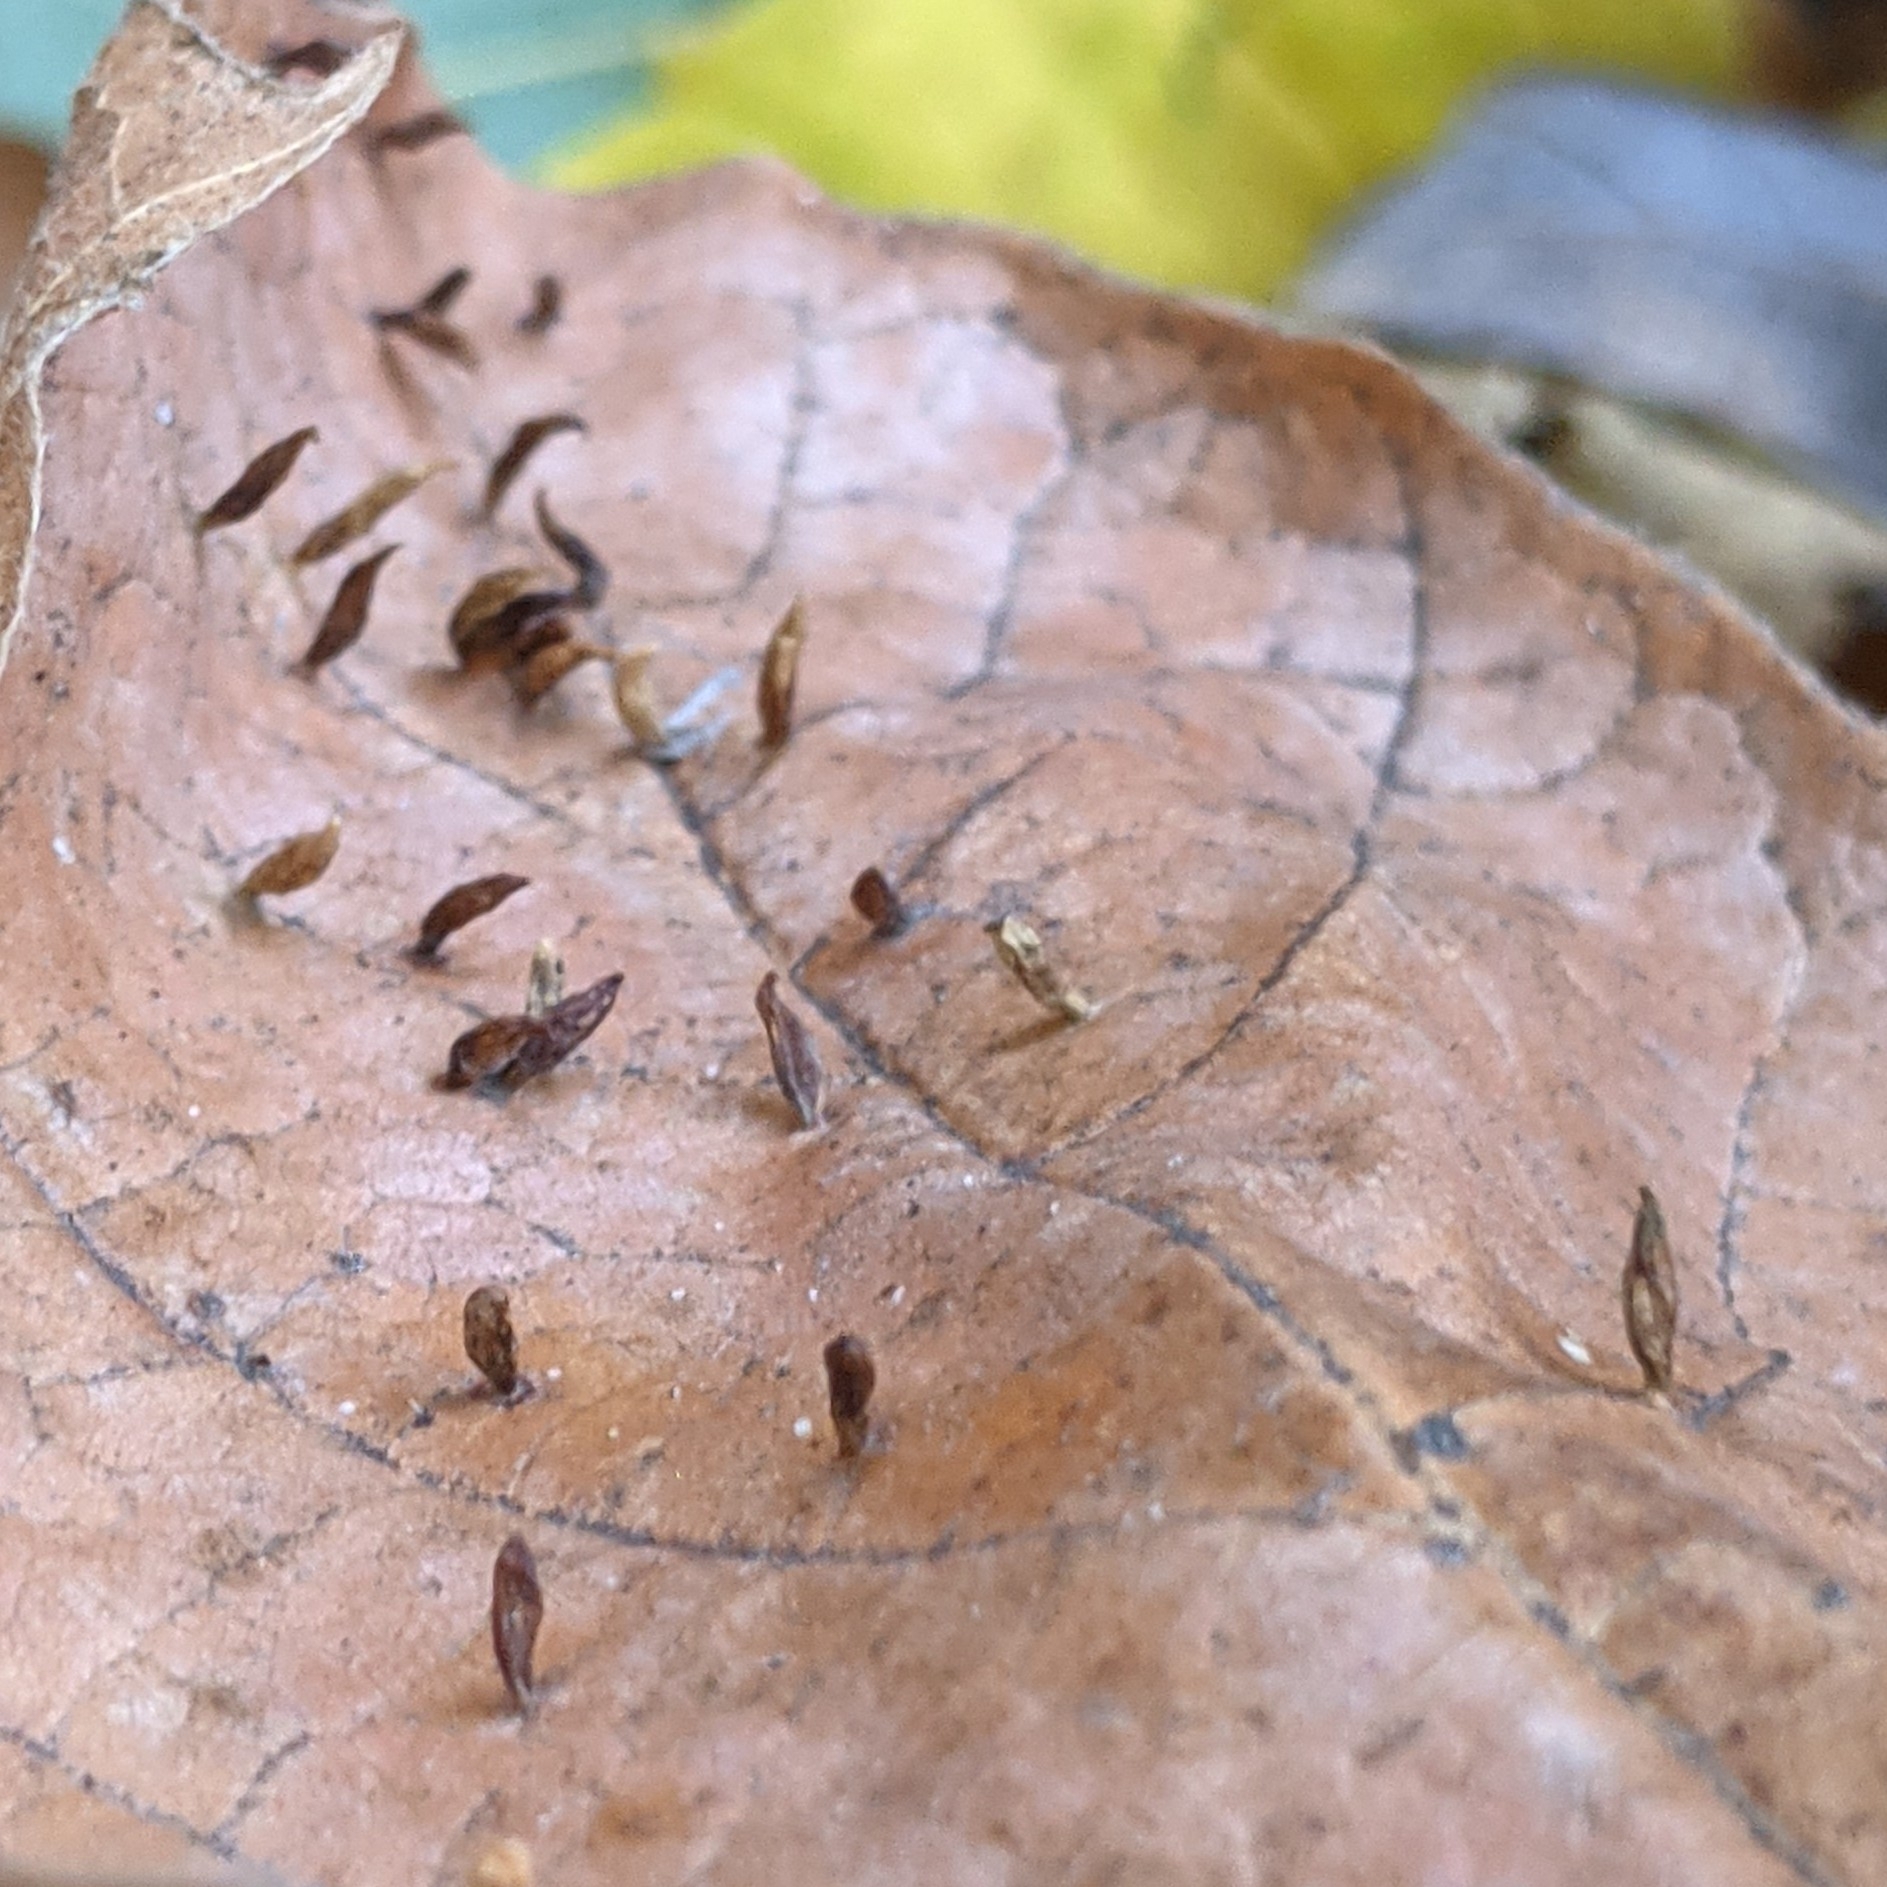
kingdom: Animalia
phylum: Arthropoda
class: Arachnida
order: Trombidiformes
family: Eriophyidae
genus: Vasates
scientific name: Vasates aceriscrumena
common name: Maple spindle gall mite
